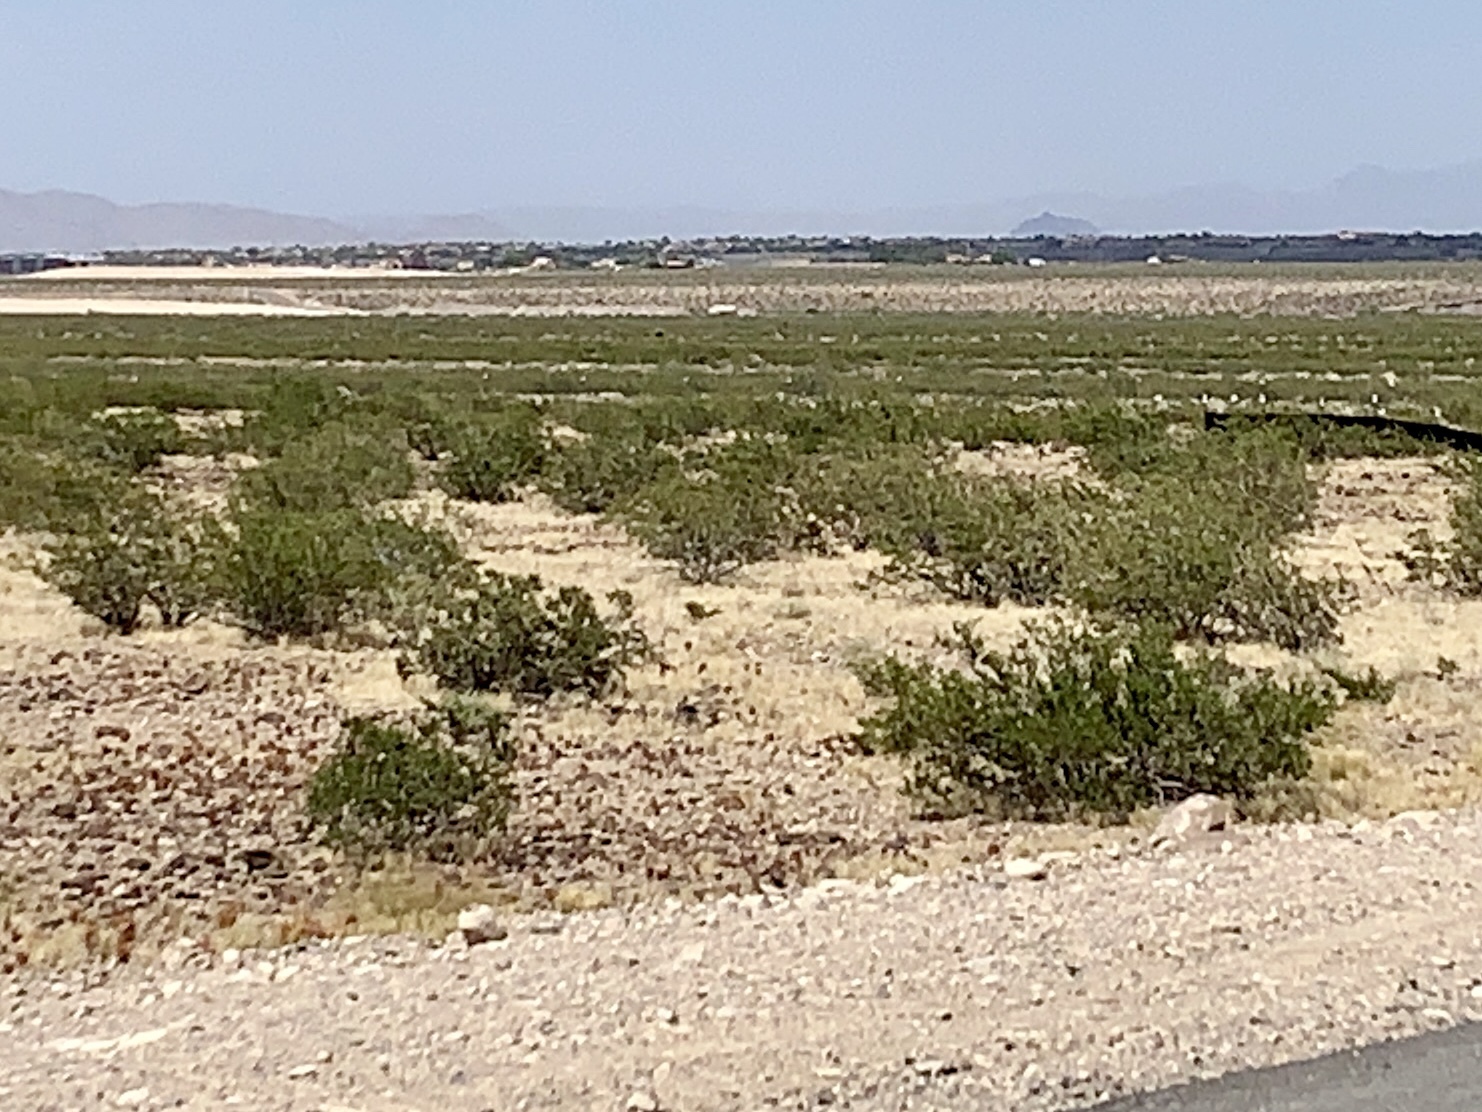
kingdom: Plantae
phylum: Tracheophyta
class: Magnoliopsida
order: Zygophyllales
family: Zygophyllaceae
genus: Larrea
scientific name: Larrea tridentata
